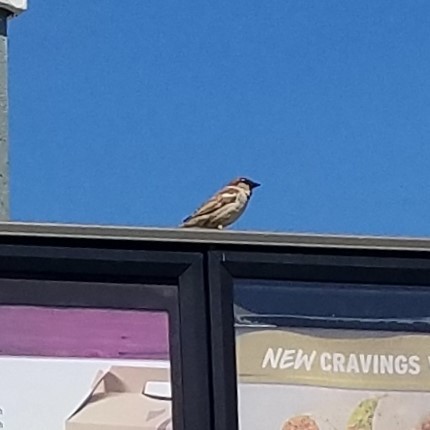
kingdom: Animalia
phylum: Chordata
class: Aves
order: Passeriformes
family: Passeridae
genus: Passer
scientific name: Passer domesticus
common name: House sparrow
